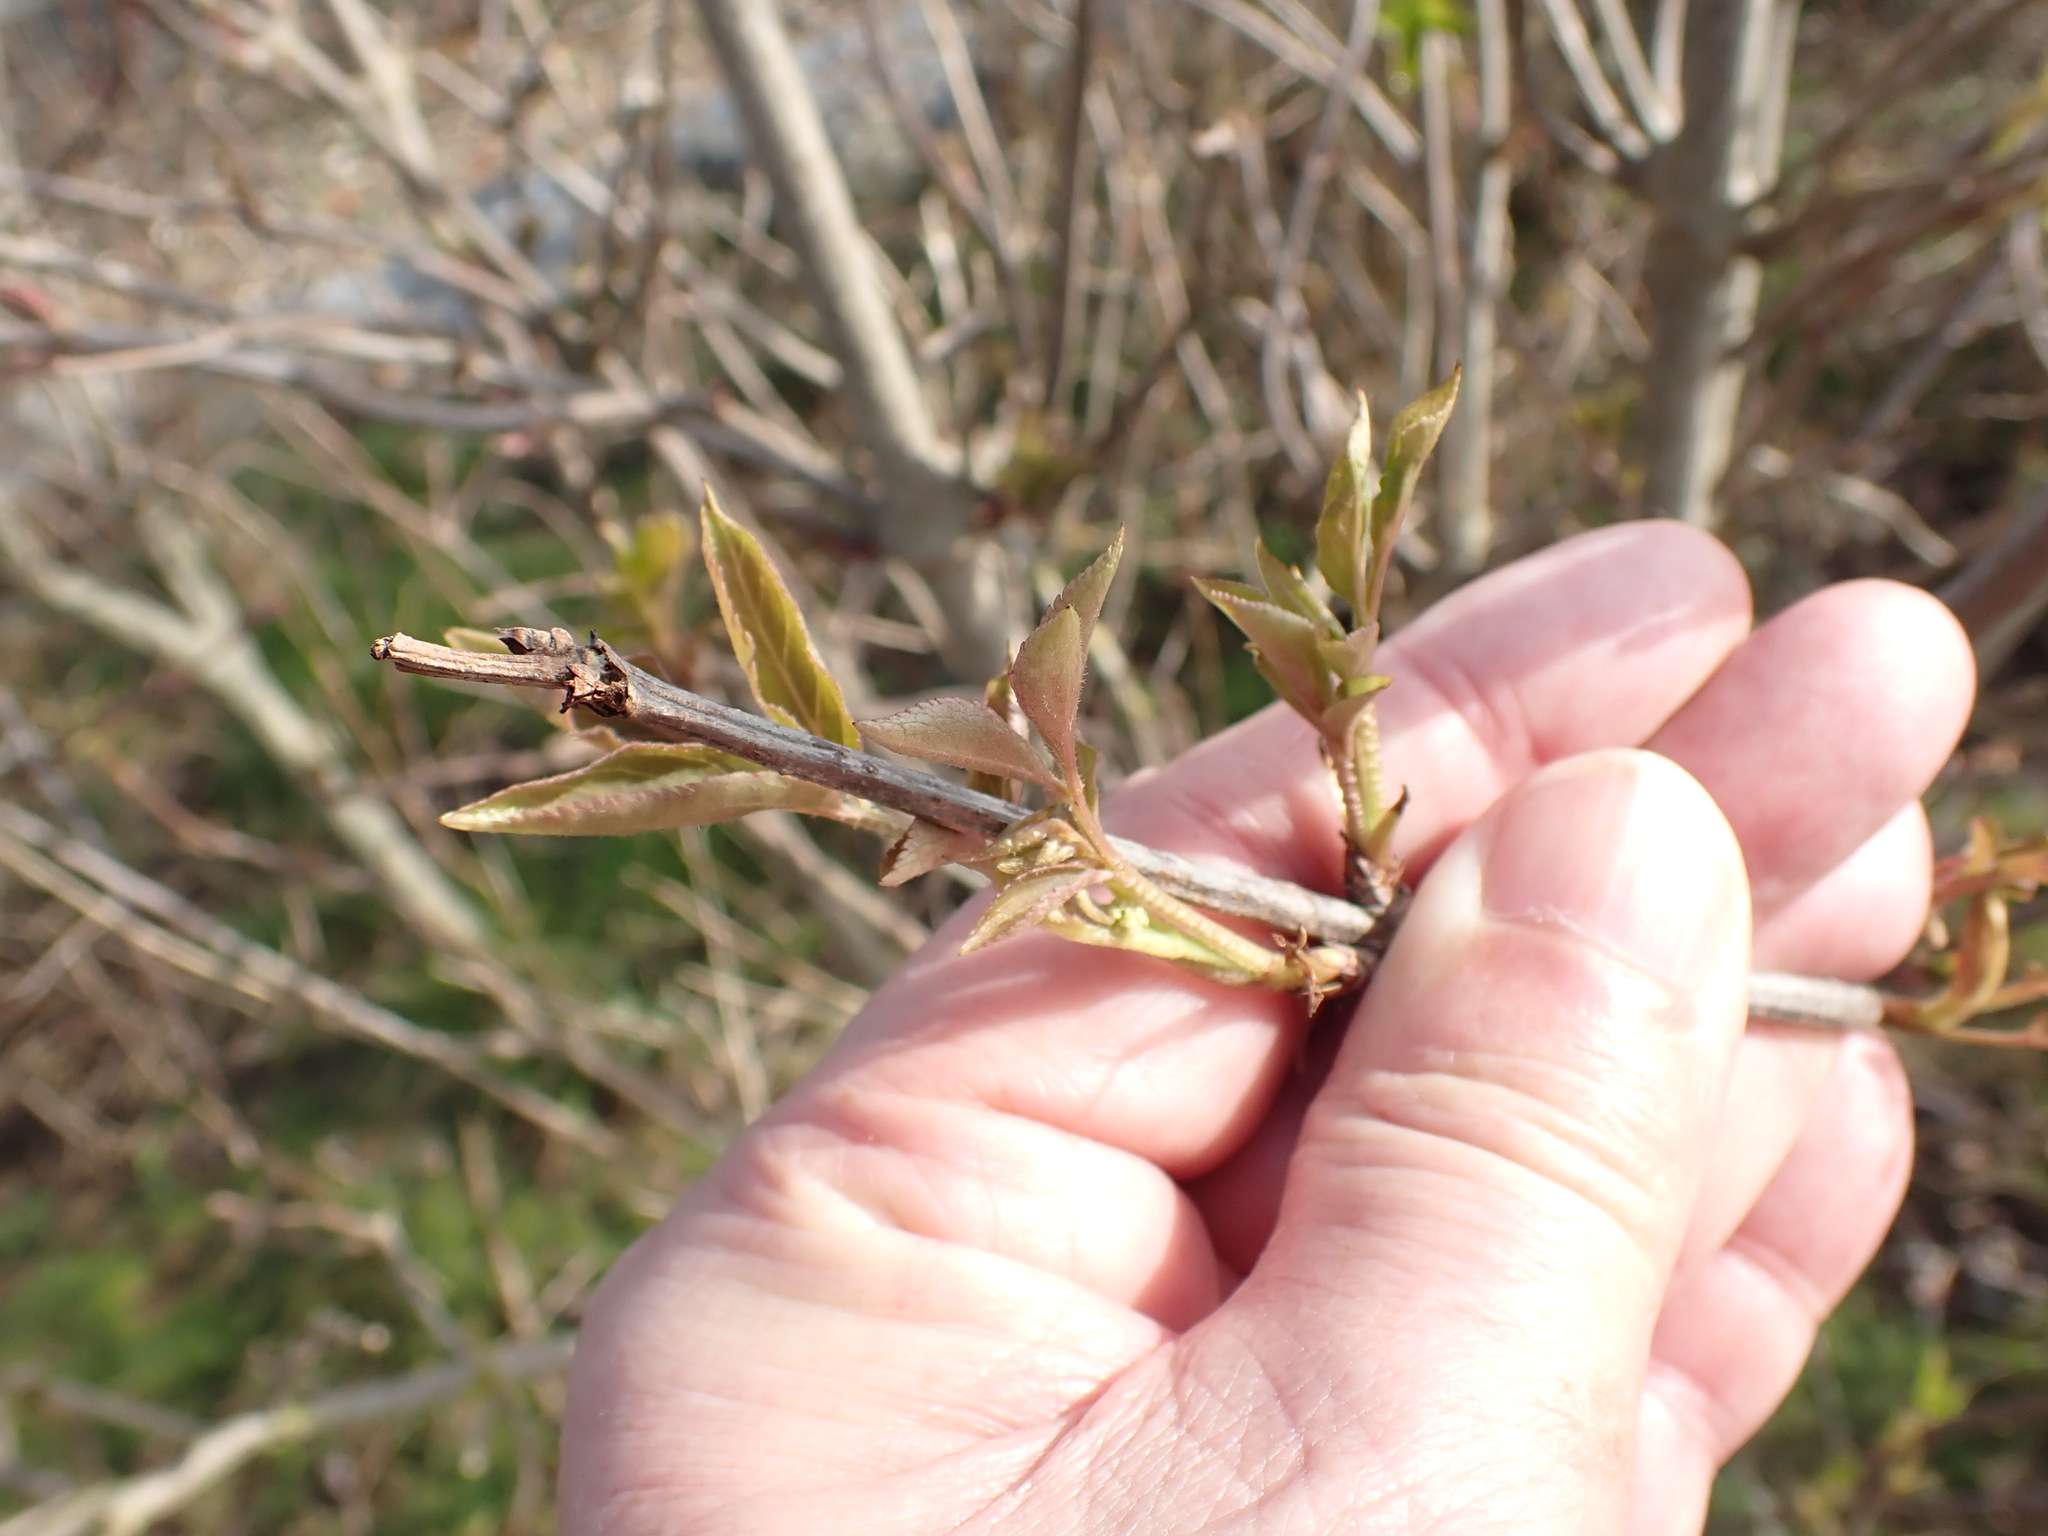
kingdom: Plantae
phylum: Tracheophyta
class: Magnoliopsida
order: Dipsacales
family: Viburnaceae
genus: Sambucus
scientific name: Sambucus nigra
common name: Elder
